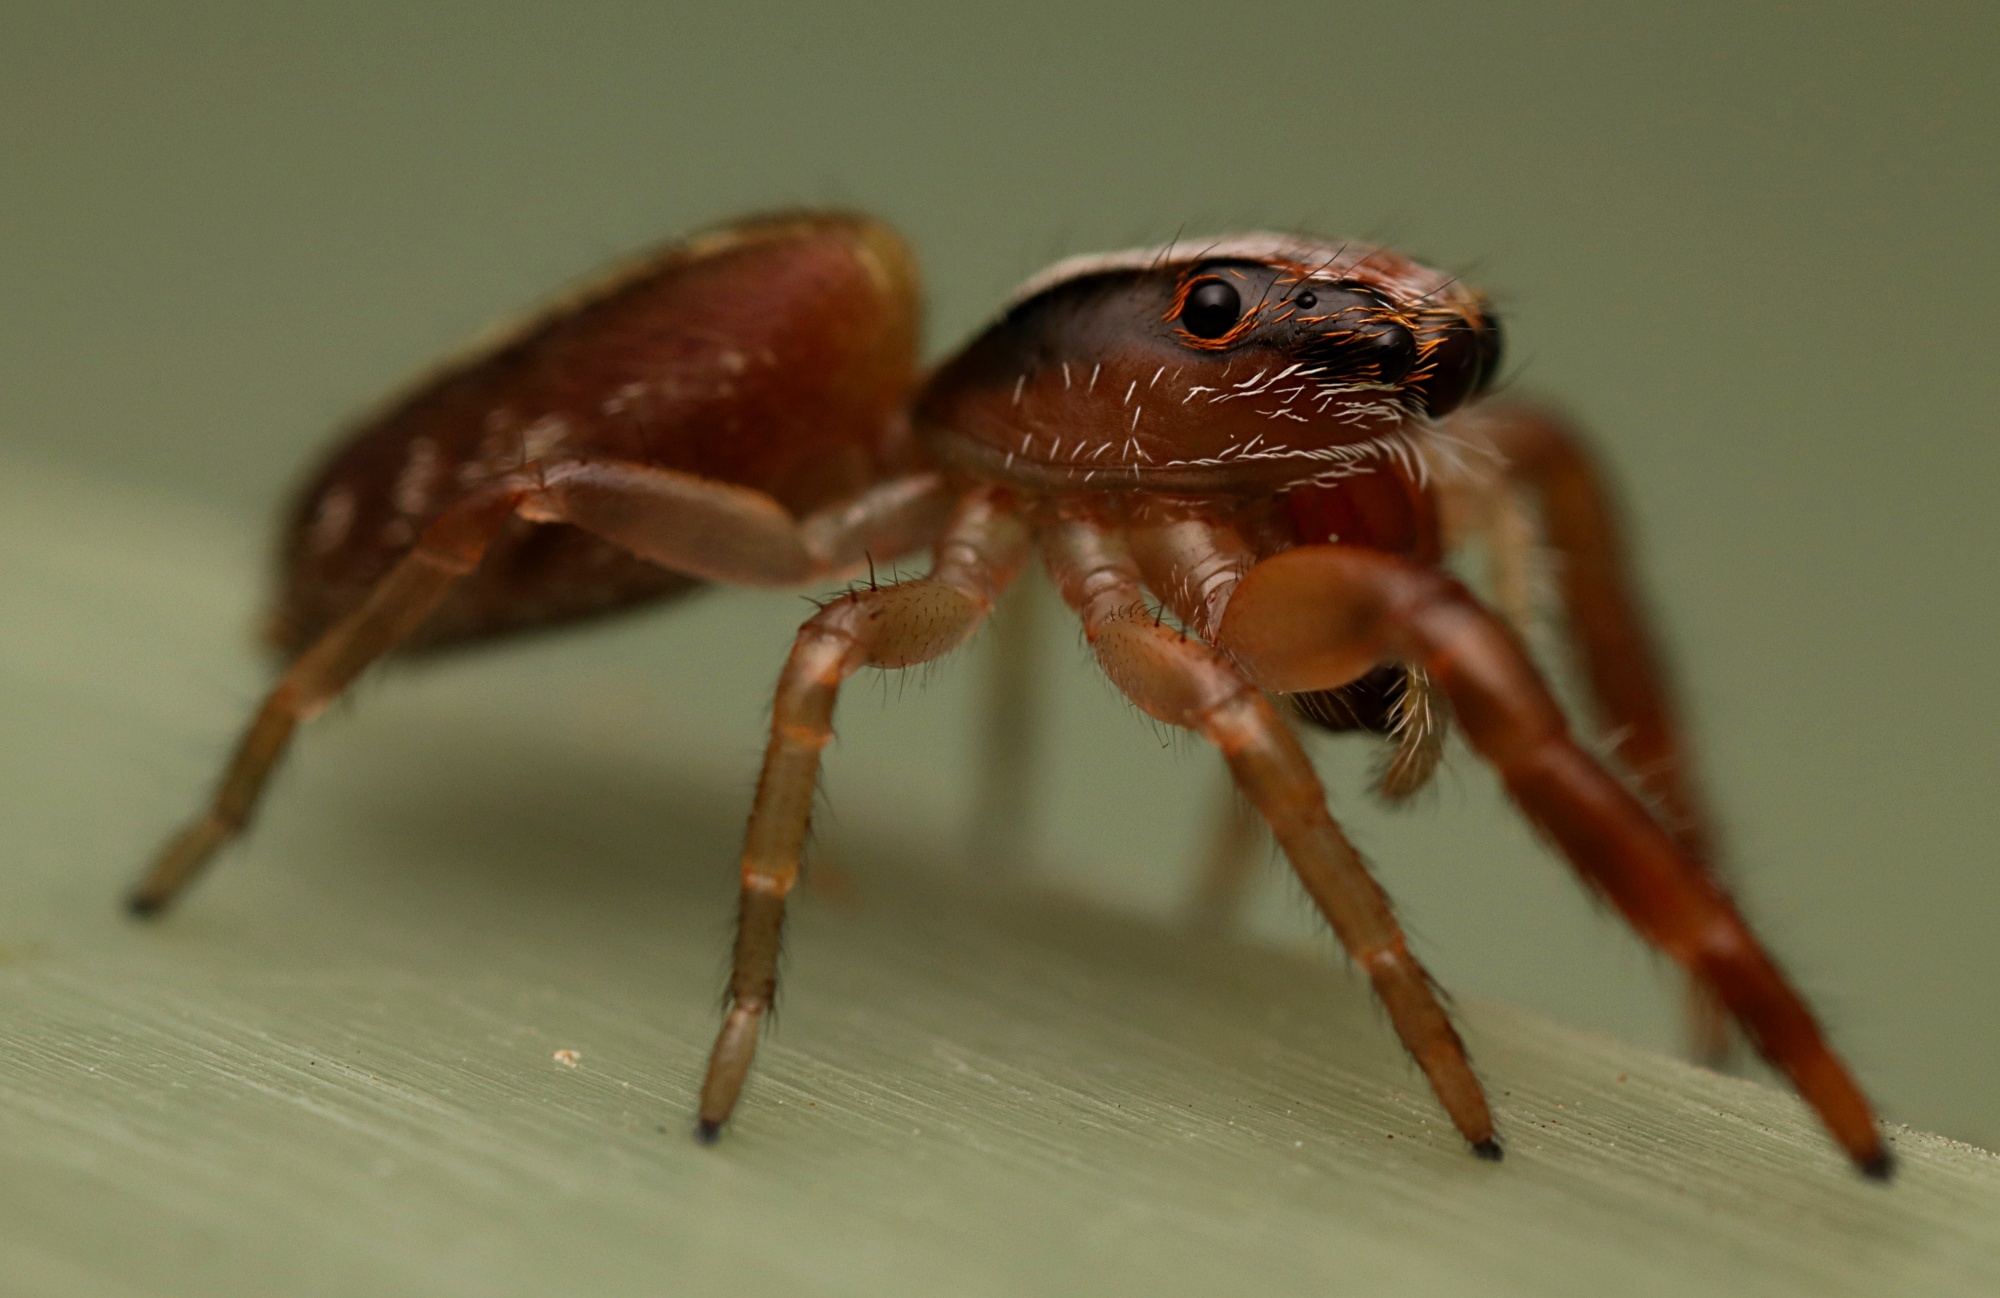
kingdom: Animalia
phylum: Arthropoda
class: Arachnida
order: Araneae
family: Salticidae
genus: Trite
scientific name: Trite planiceps
